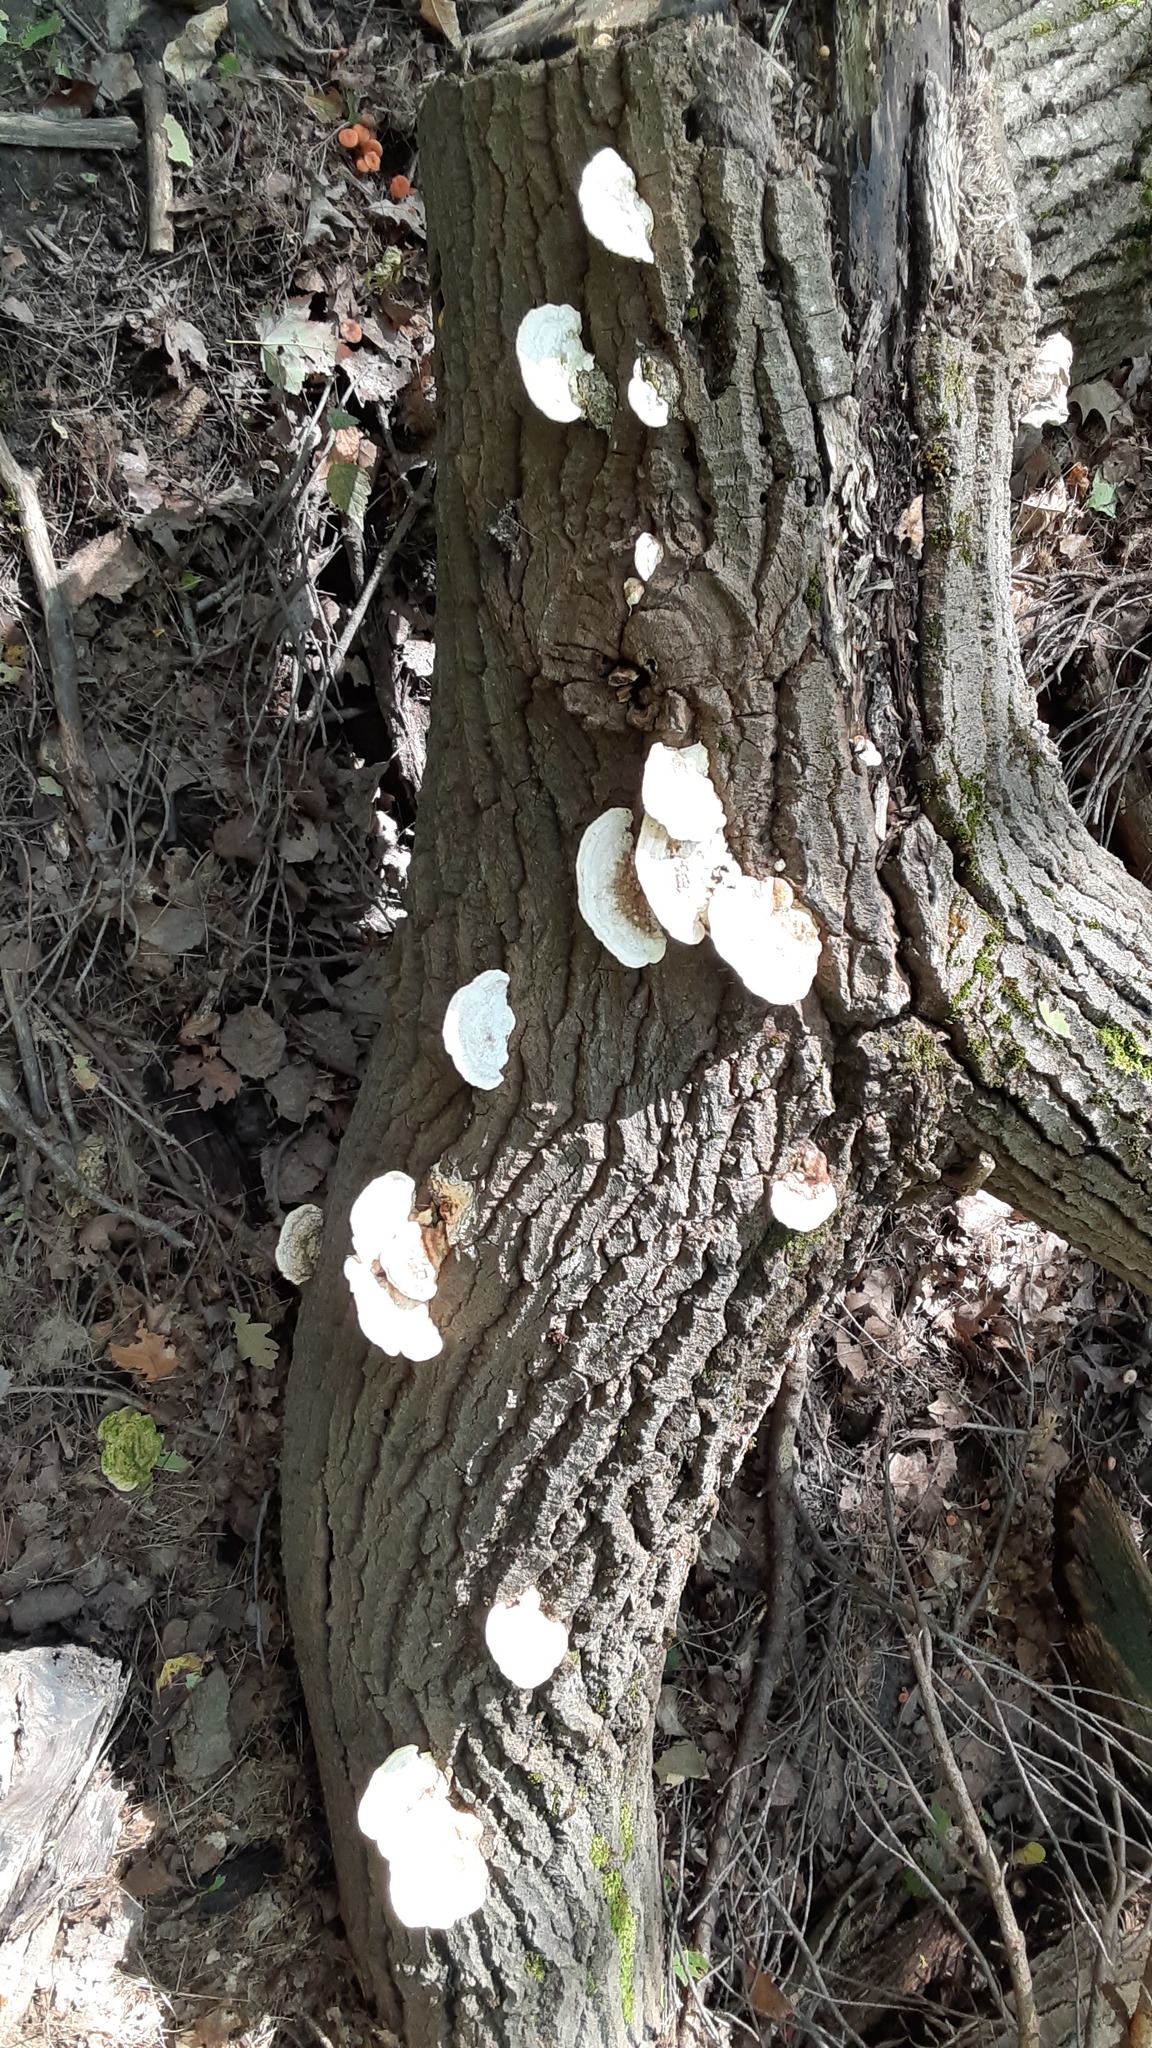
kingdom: Fungi
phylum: Basidiomycota
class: Agaricomycetes
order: Polyporales
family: Polyporaceae
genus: Trametes
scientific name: Trametes gibbosa
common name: Lumpy bracket
